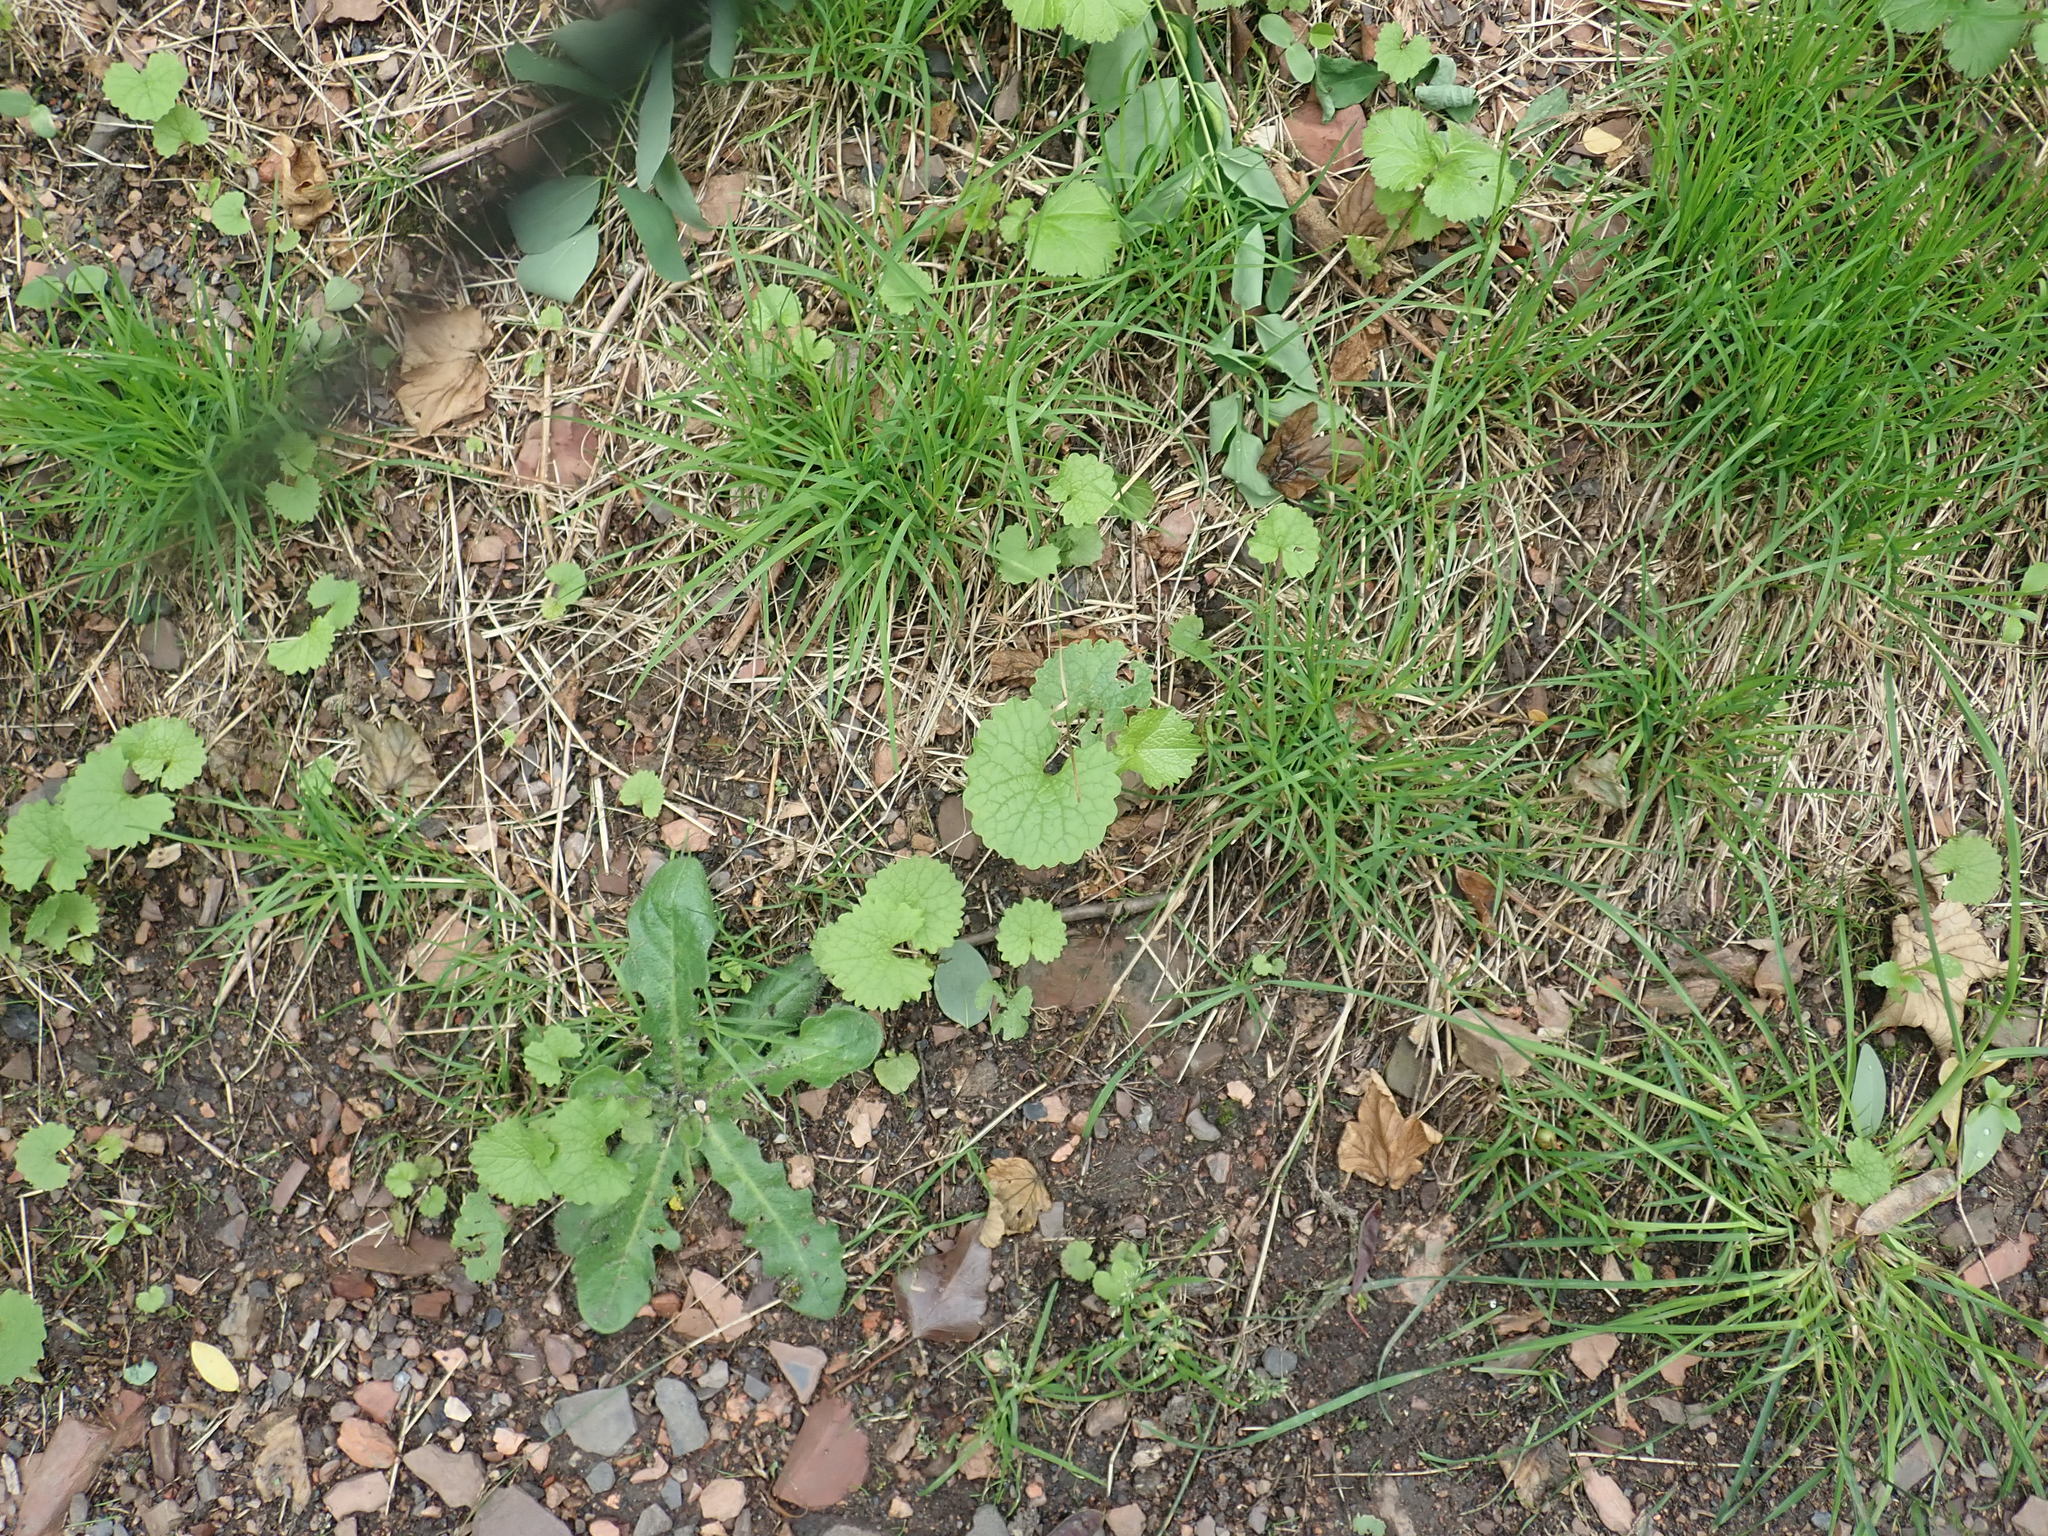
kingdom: Plantae
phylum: Tracheophyta
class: Magnoliopsida
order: Brassicales
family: Brassicaceae
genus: Alliaria
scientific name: Alliaria petiolata
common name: Garlic mustard
